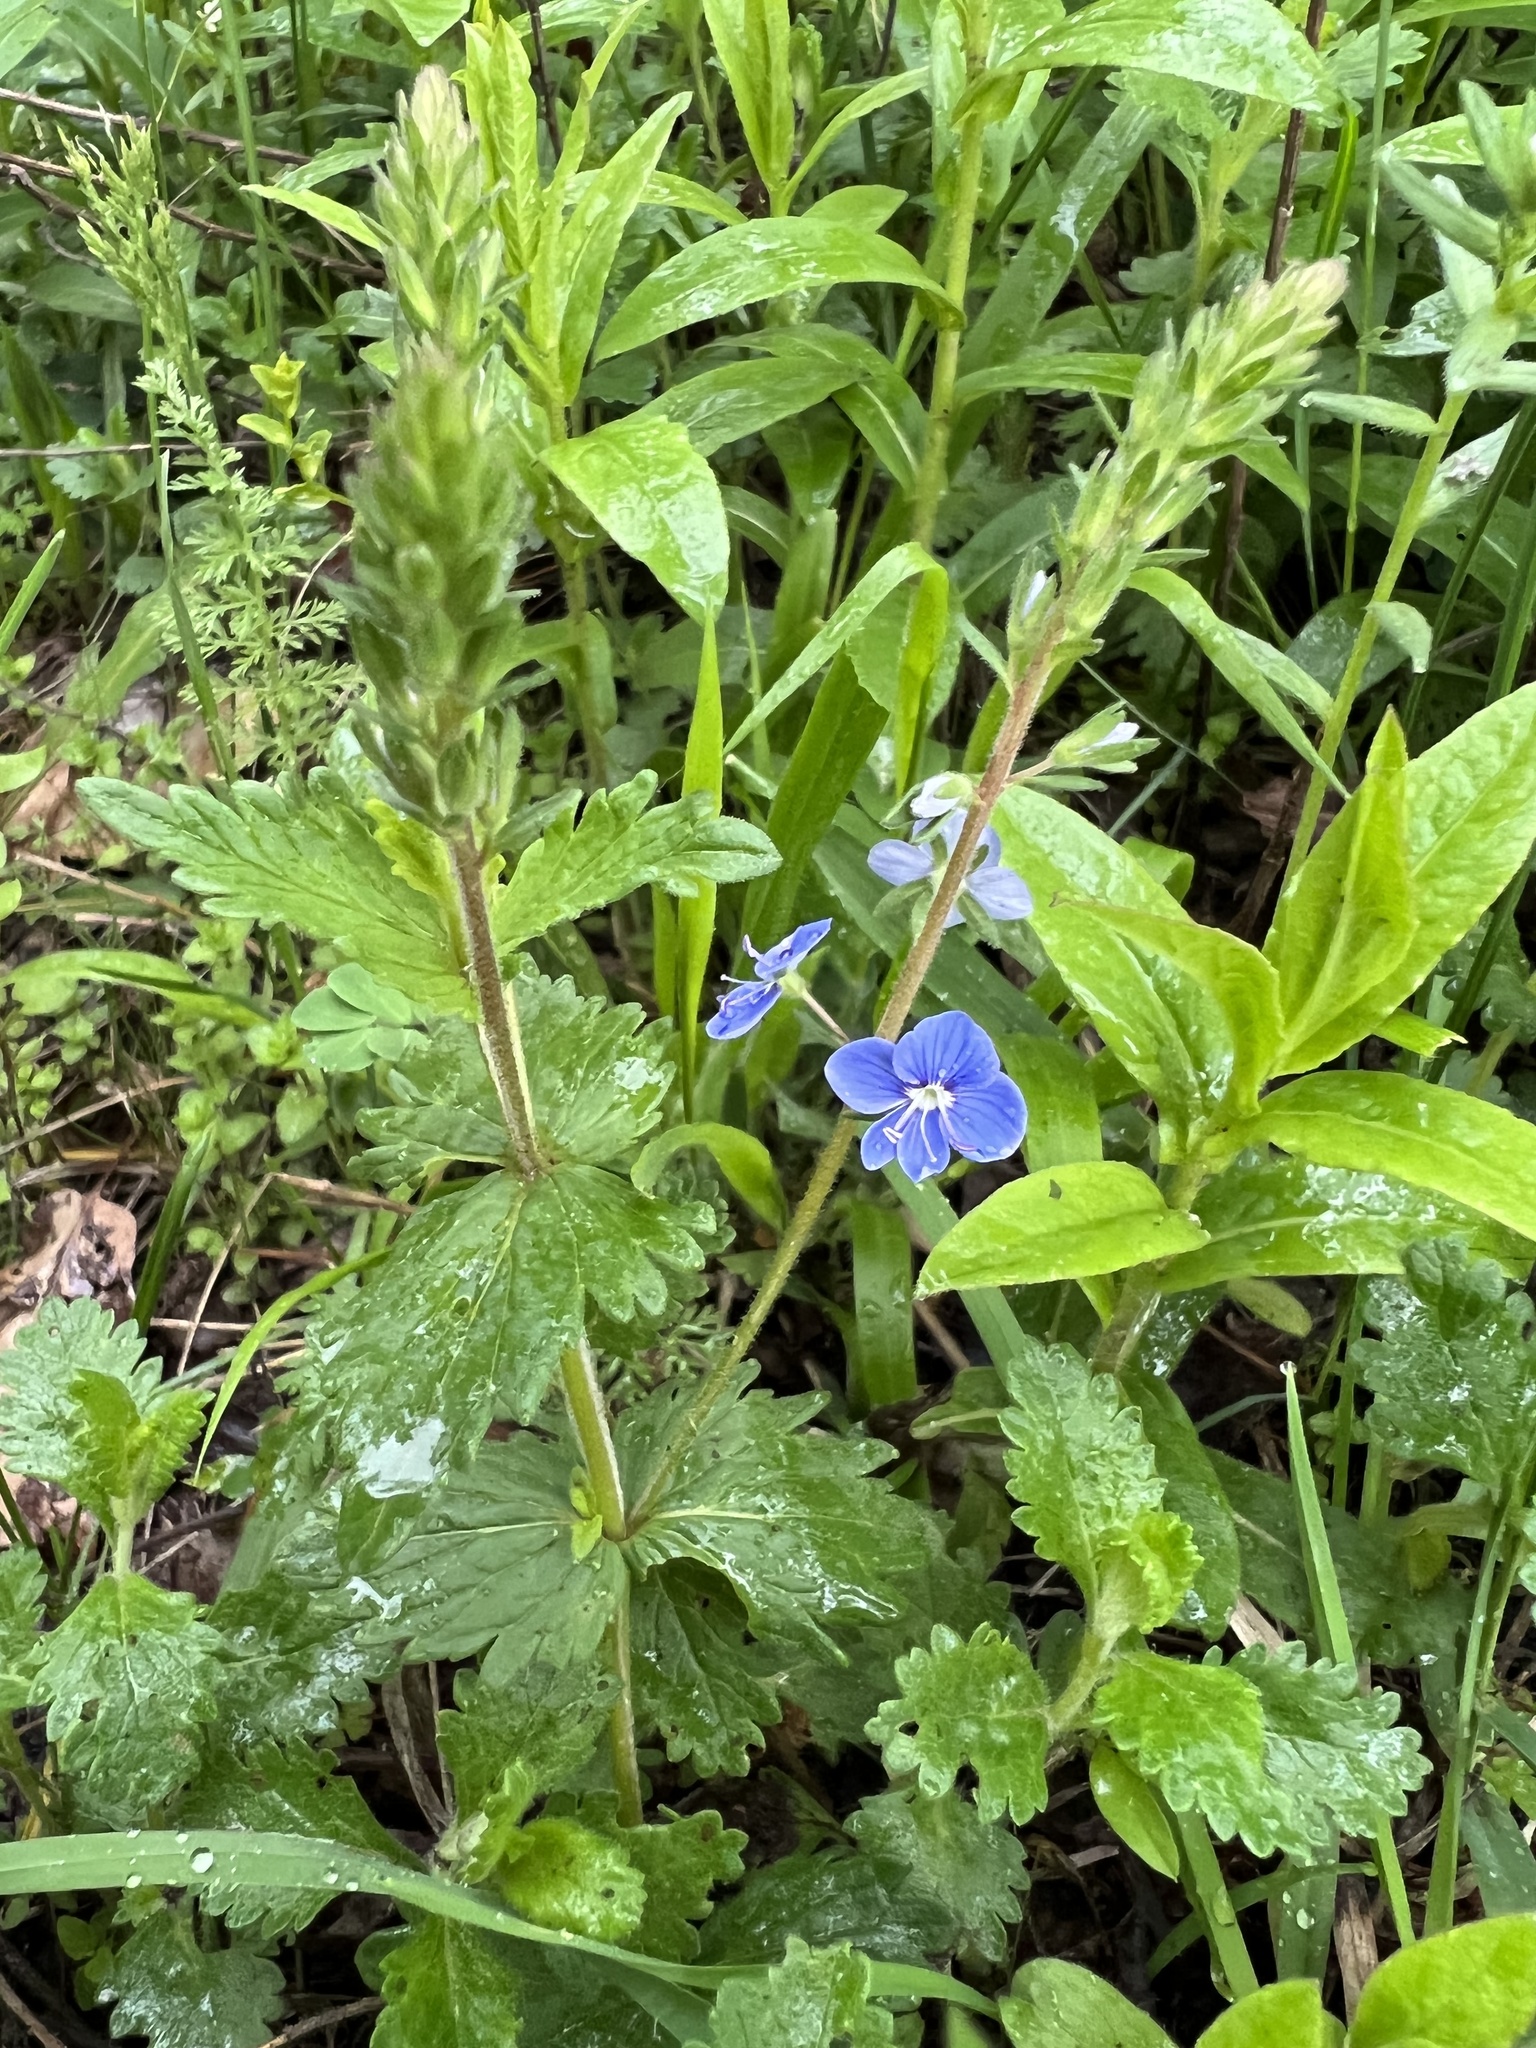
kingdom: Plantae
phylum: Tracheophyta
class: Magnoliopsida
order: Lamiales
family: Plantaginaceae
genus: Veronica
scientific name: Veronica chamaedrys
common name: Germander speedwell
